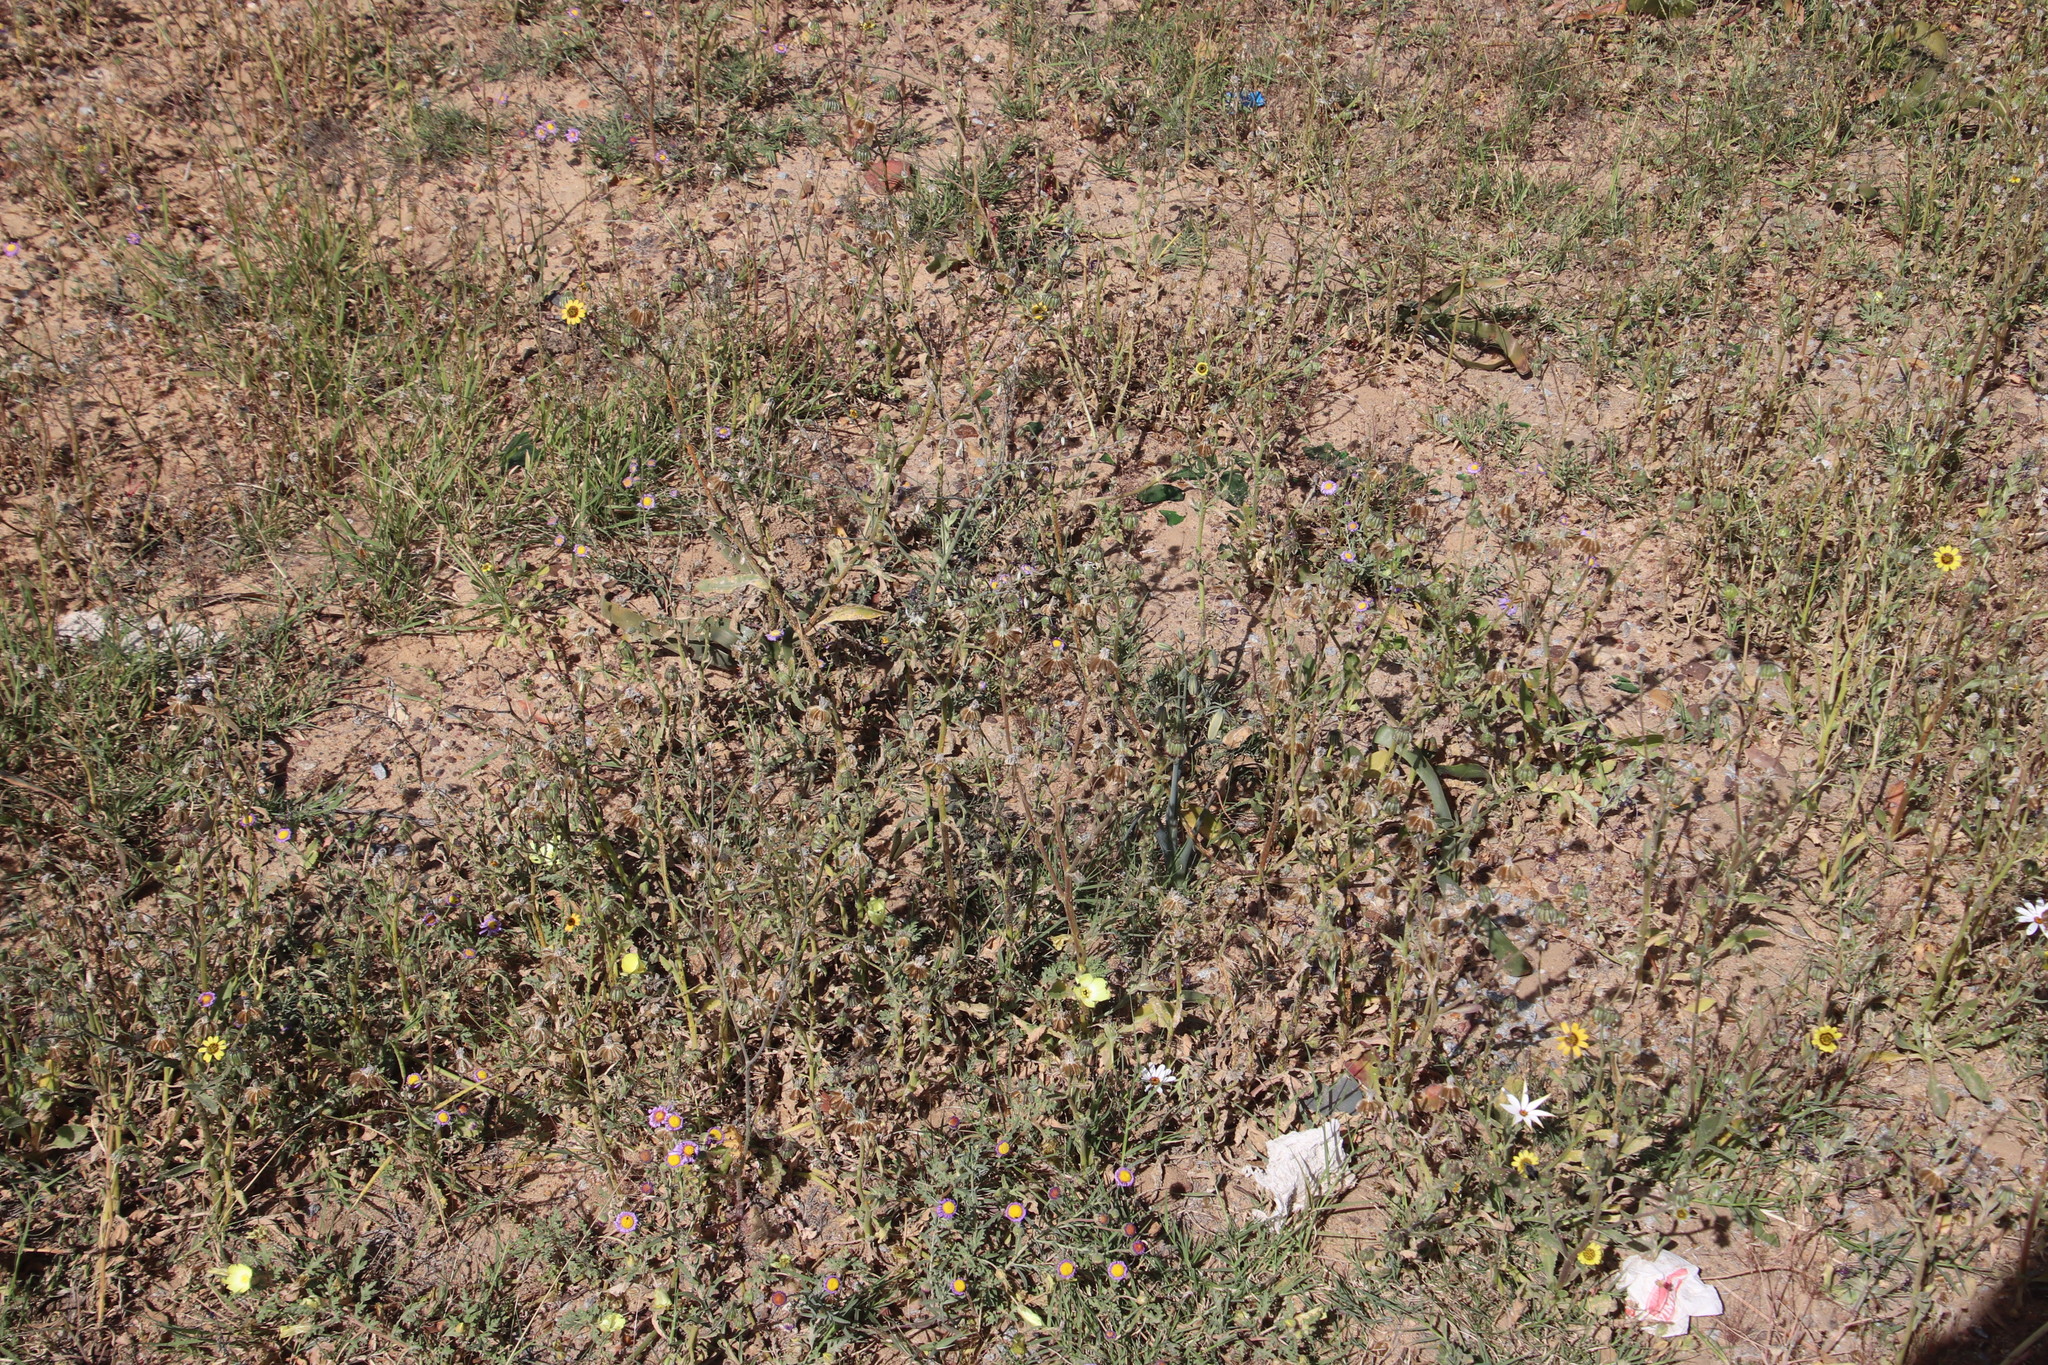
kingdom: Plantae
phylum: Tracheophyta
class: Magnoliopsida
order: Asterales
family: Asteraceae
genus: Osteospermum
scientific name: Osteospermum monstrosum
